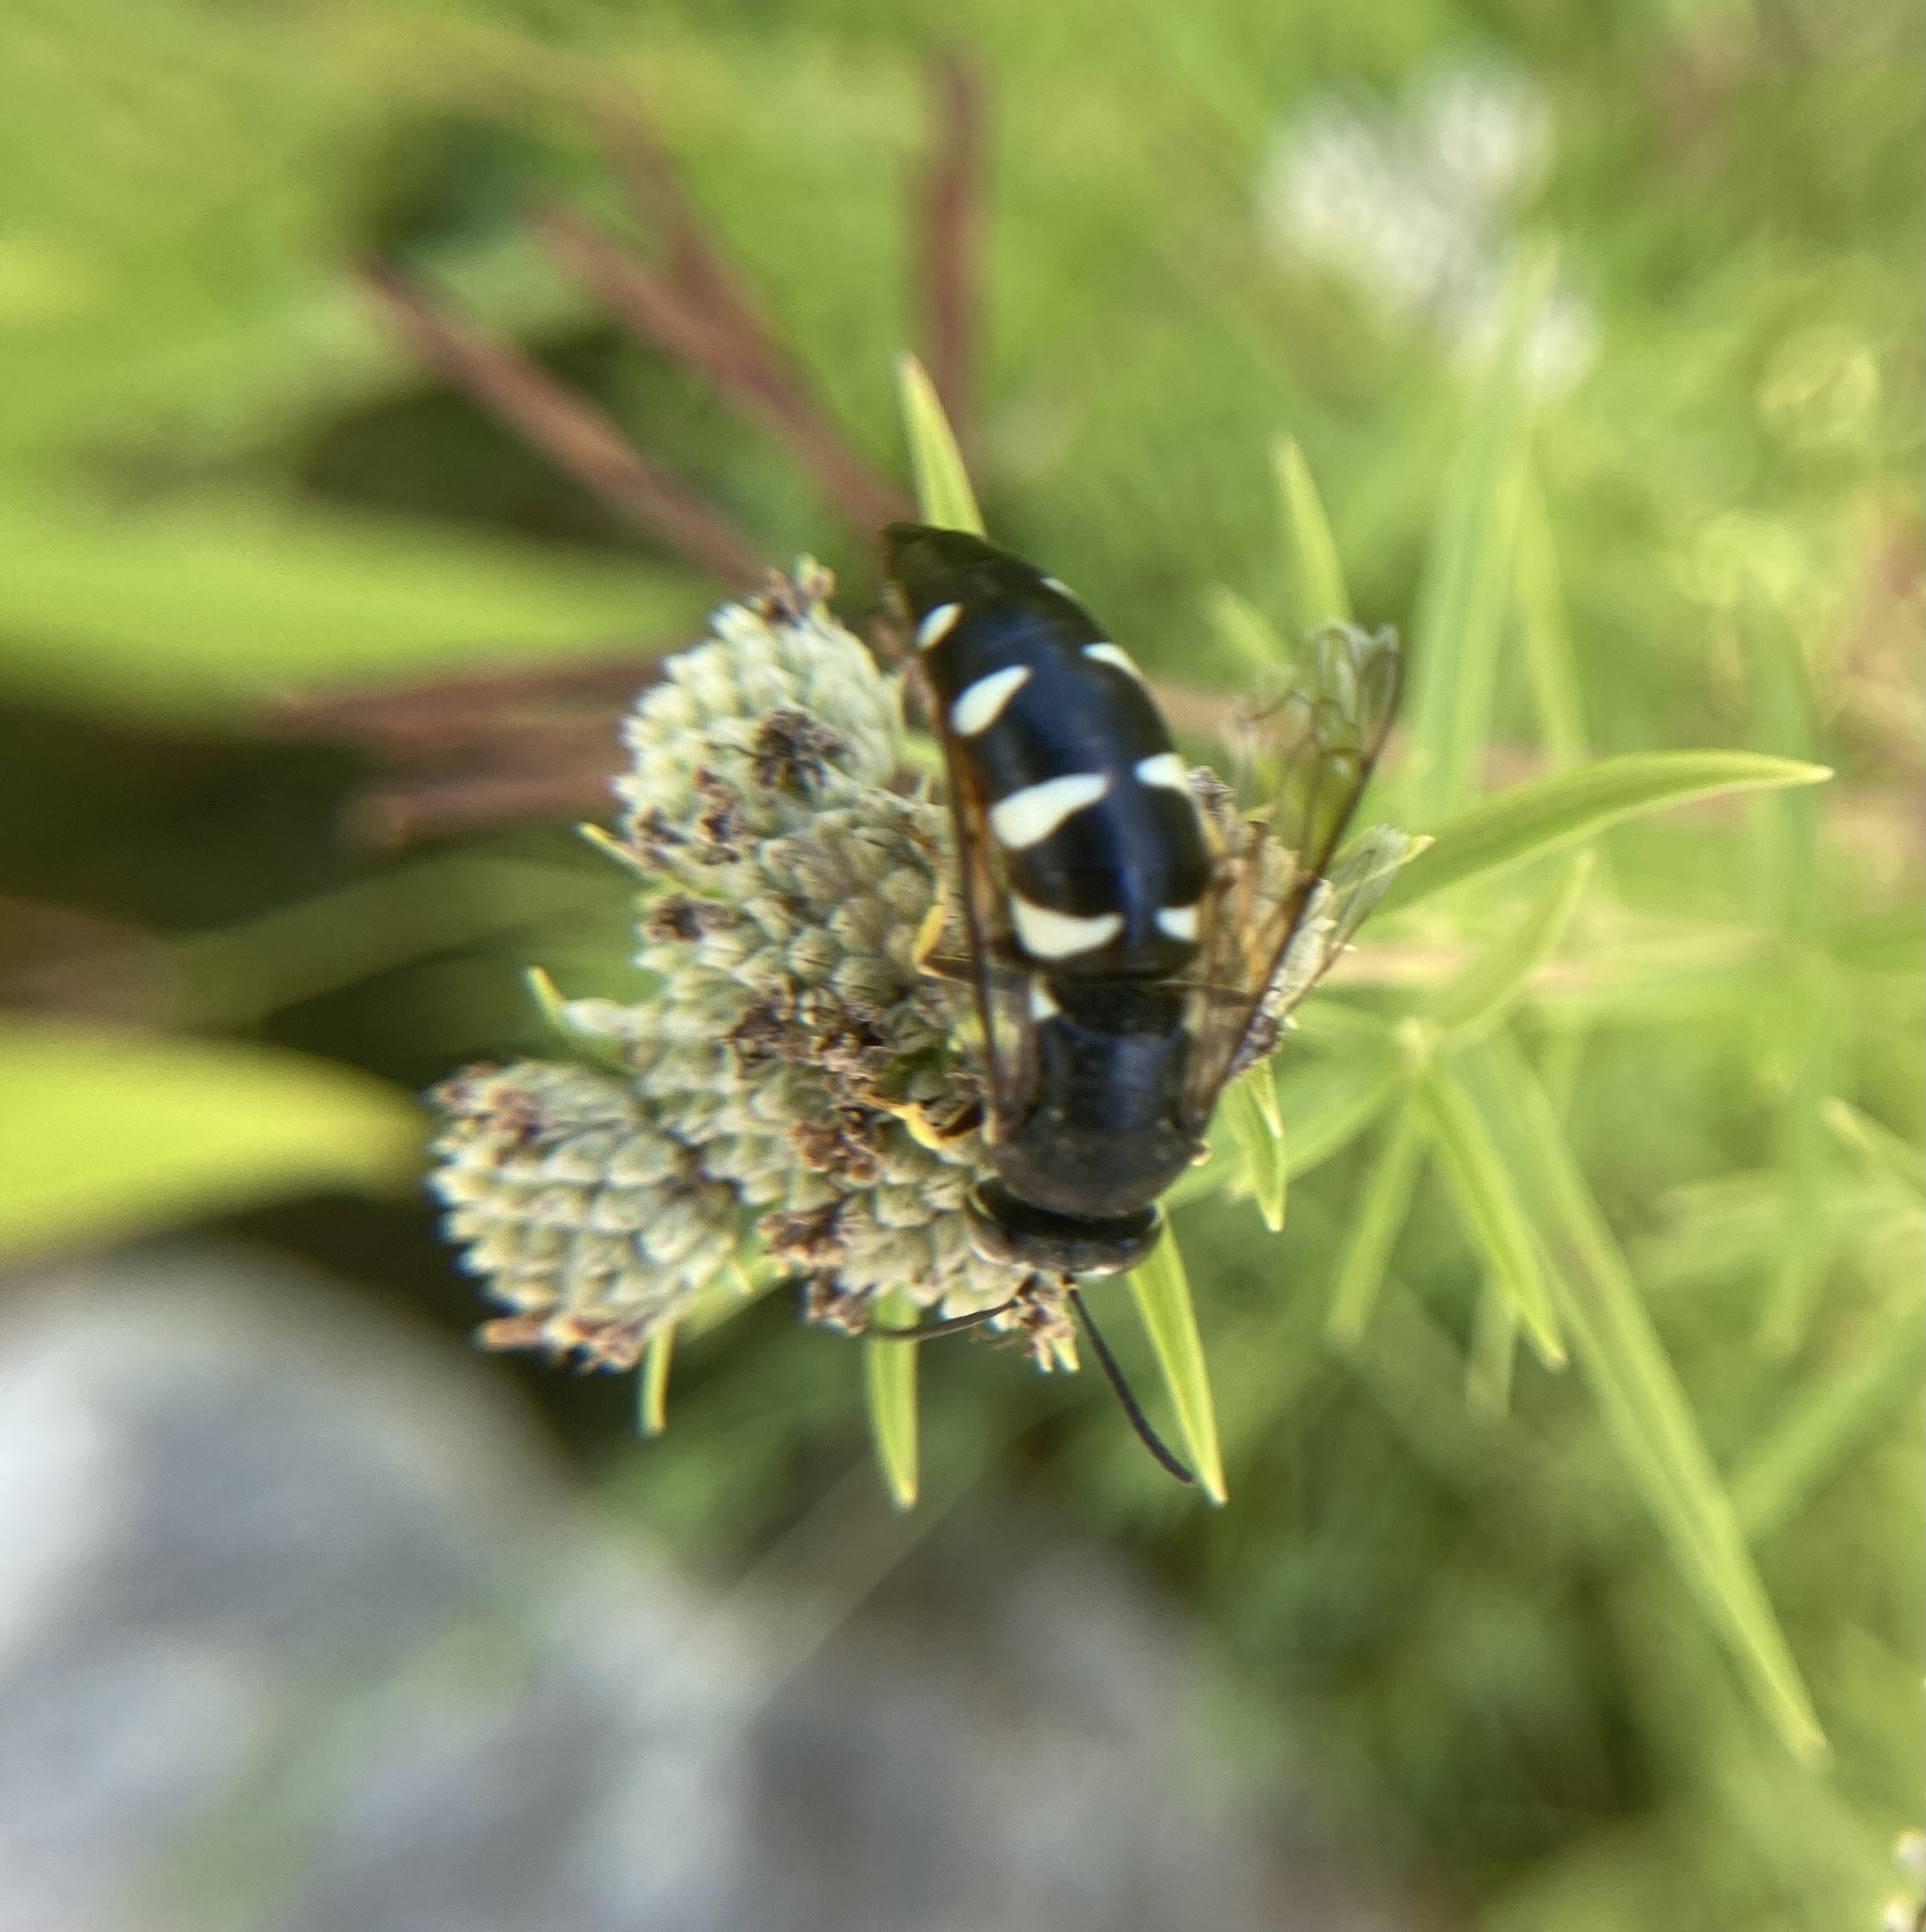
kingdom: Animalia
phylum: Arthropoda
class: Insecta
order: Hymenoptera
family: Crabronidae
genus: Bicyrtes
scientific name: Bicyrtes quadrifasciatus
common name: Four-banded stink bug hunter wasp
